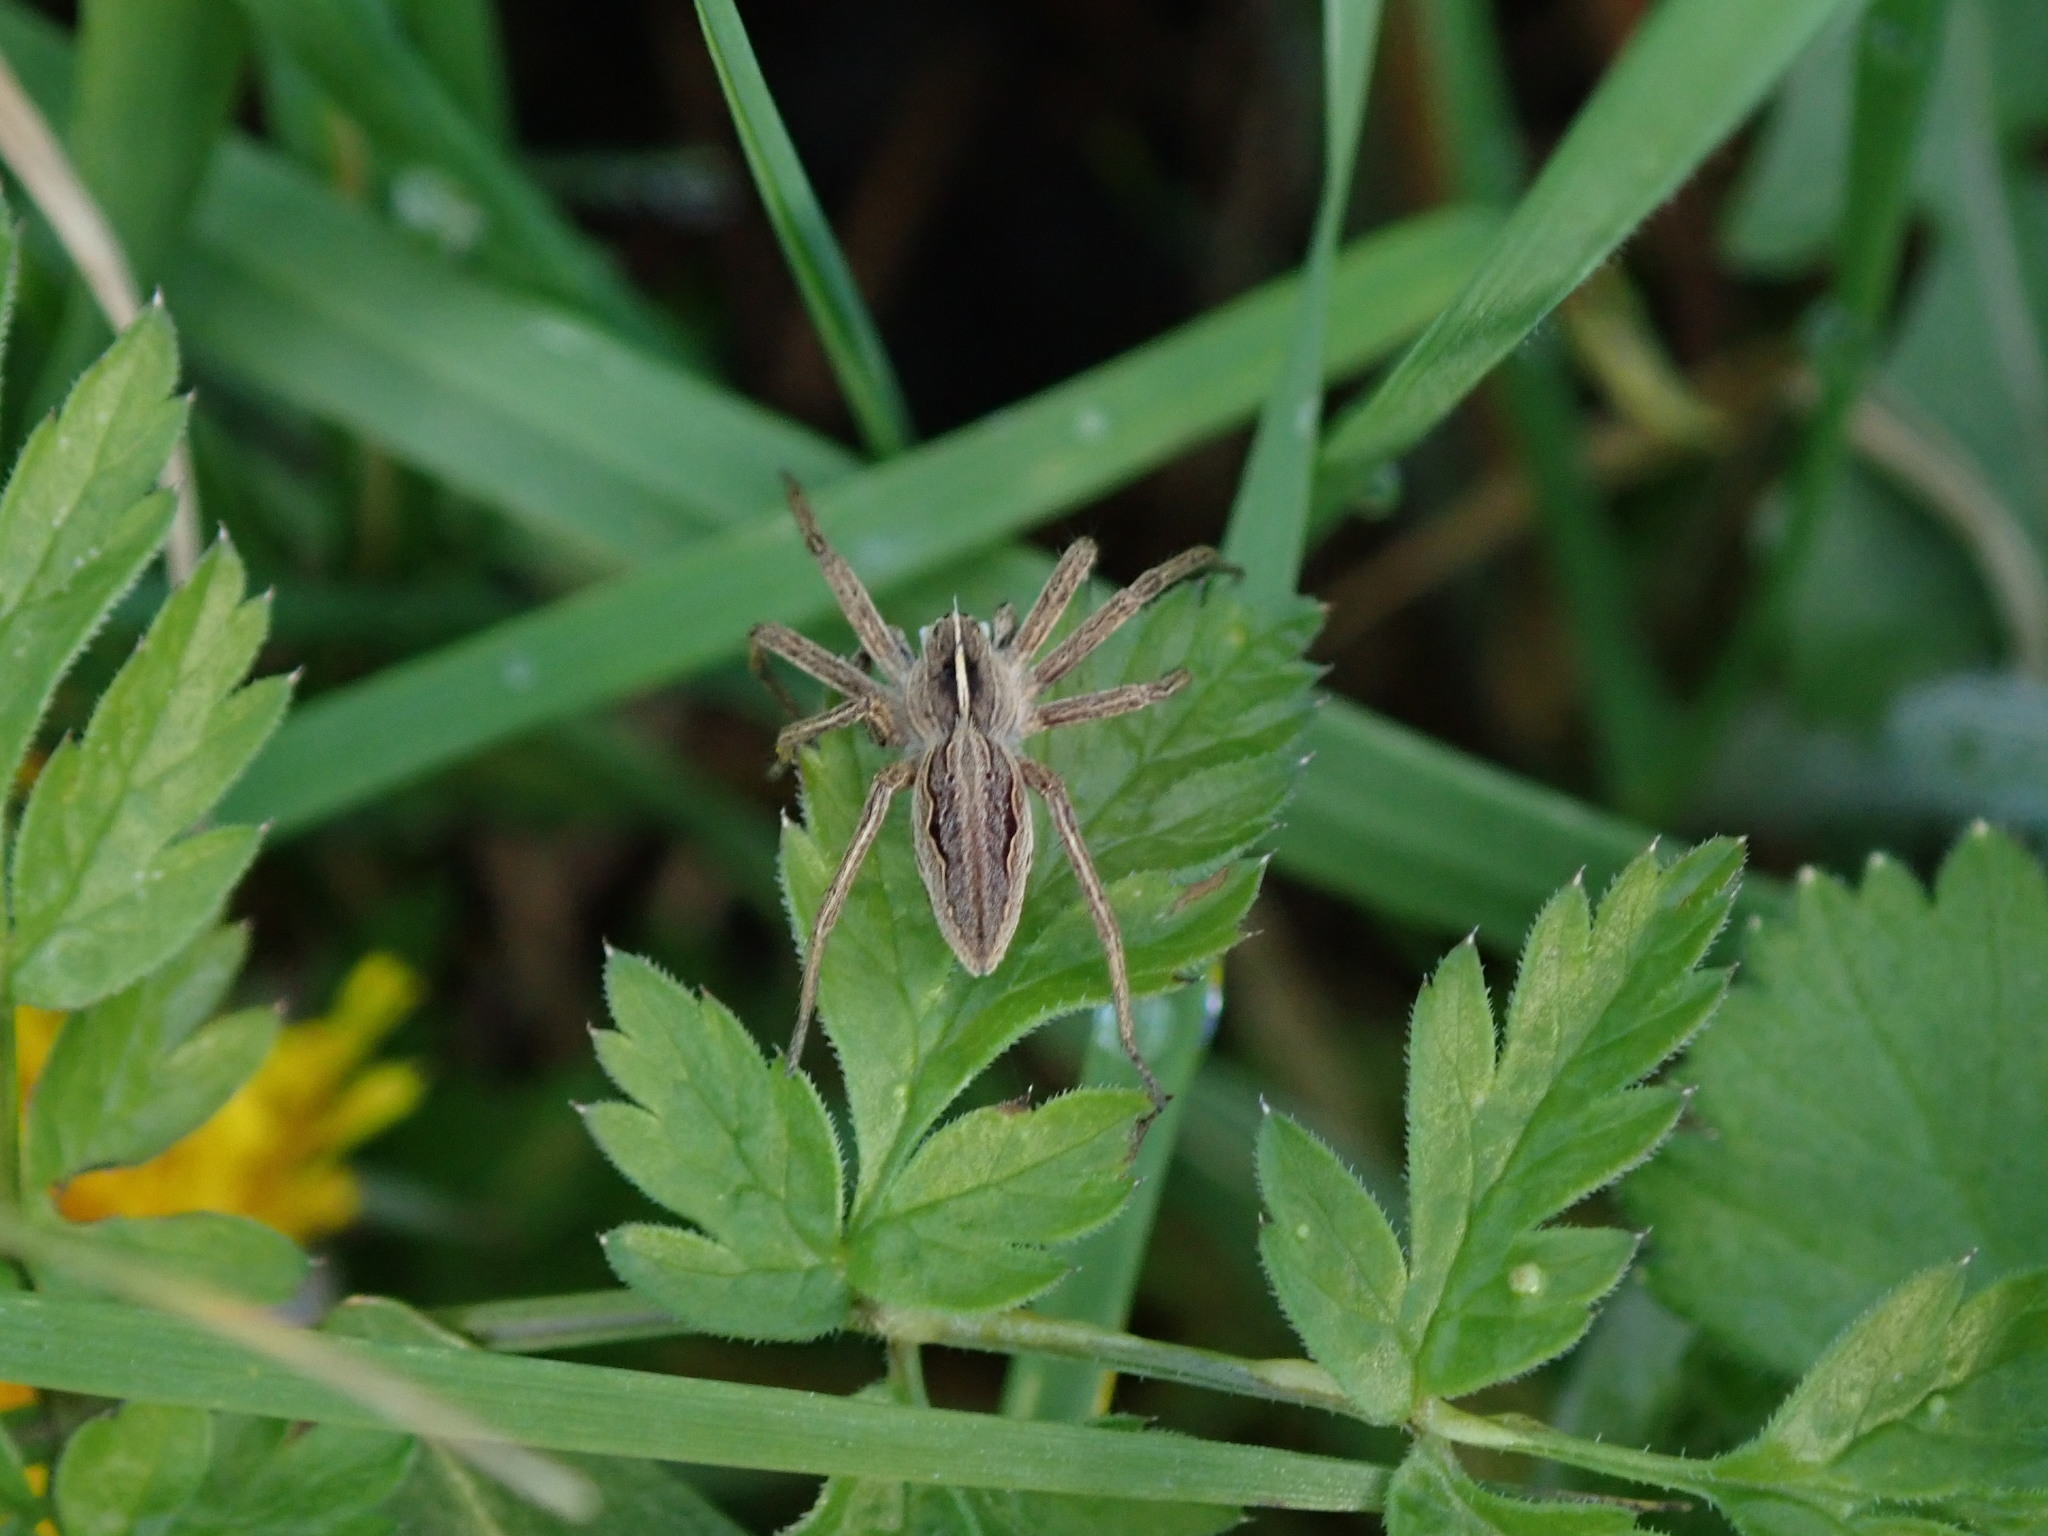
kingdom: Animalia
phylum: Arthropoda
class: Arachnida
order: Araneae
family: Pisauridae
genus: Pisaura
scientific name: Pisaura mirabilis
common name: Tent spider
